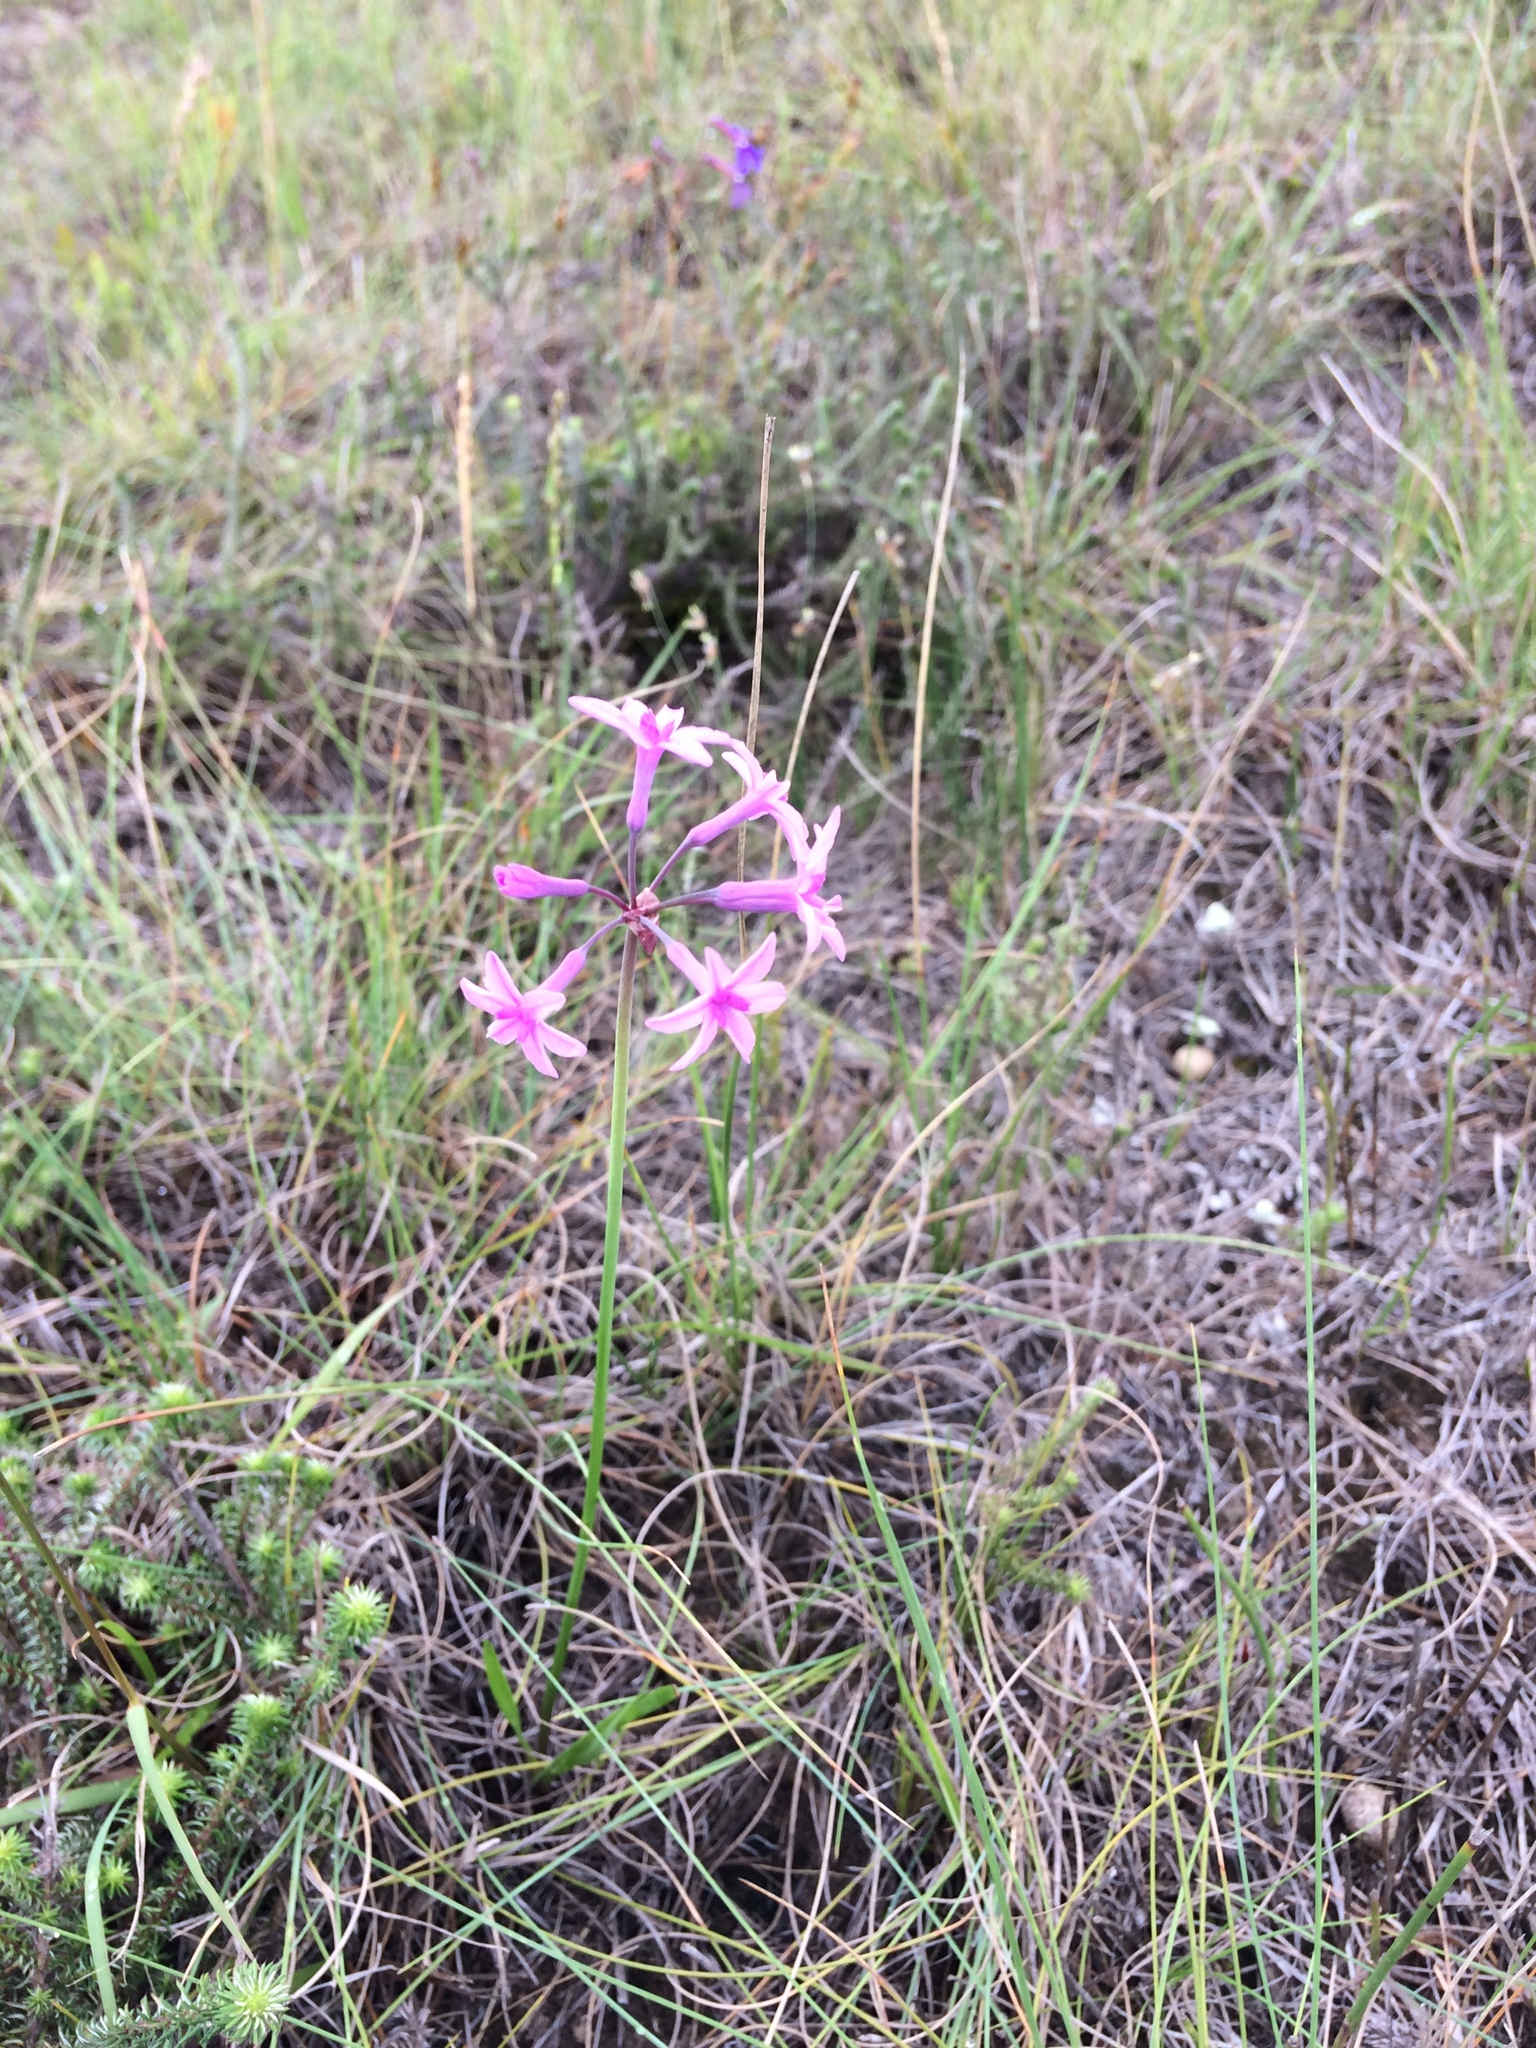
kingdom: Plantae
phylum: Tracheophyta
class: Liliopsida
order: Asparagales
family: Amaryllidaceae
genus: Tulbaghia
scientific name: Tulbaghia violacea
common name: Society garlic
